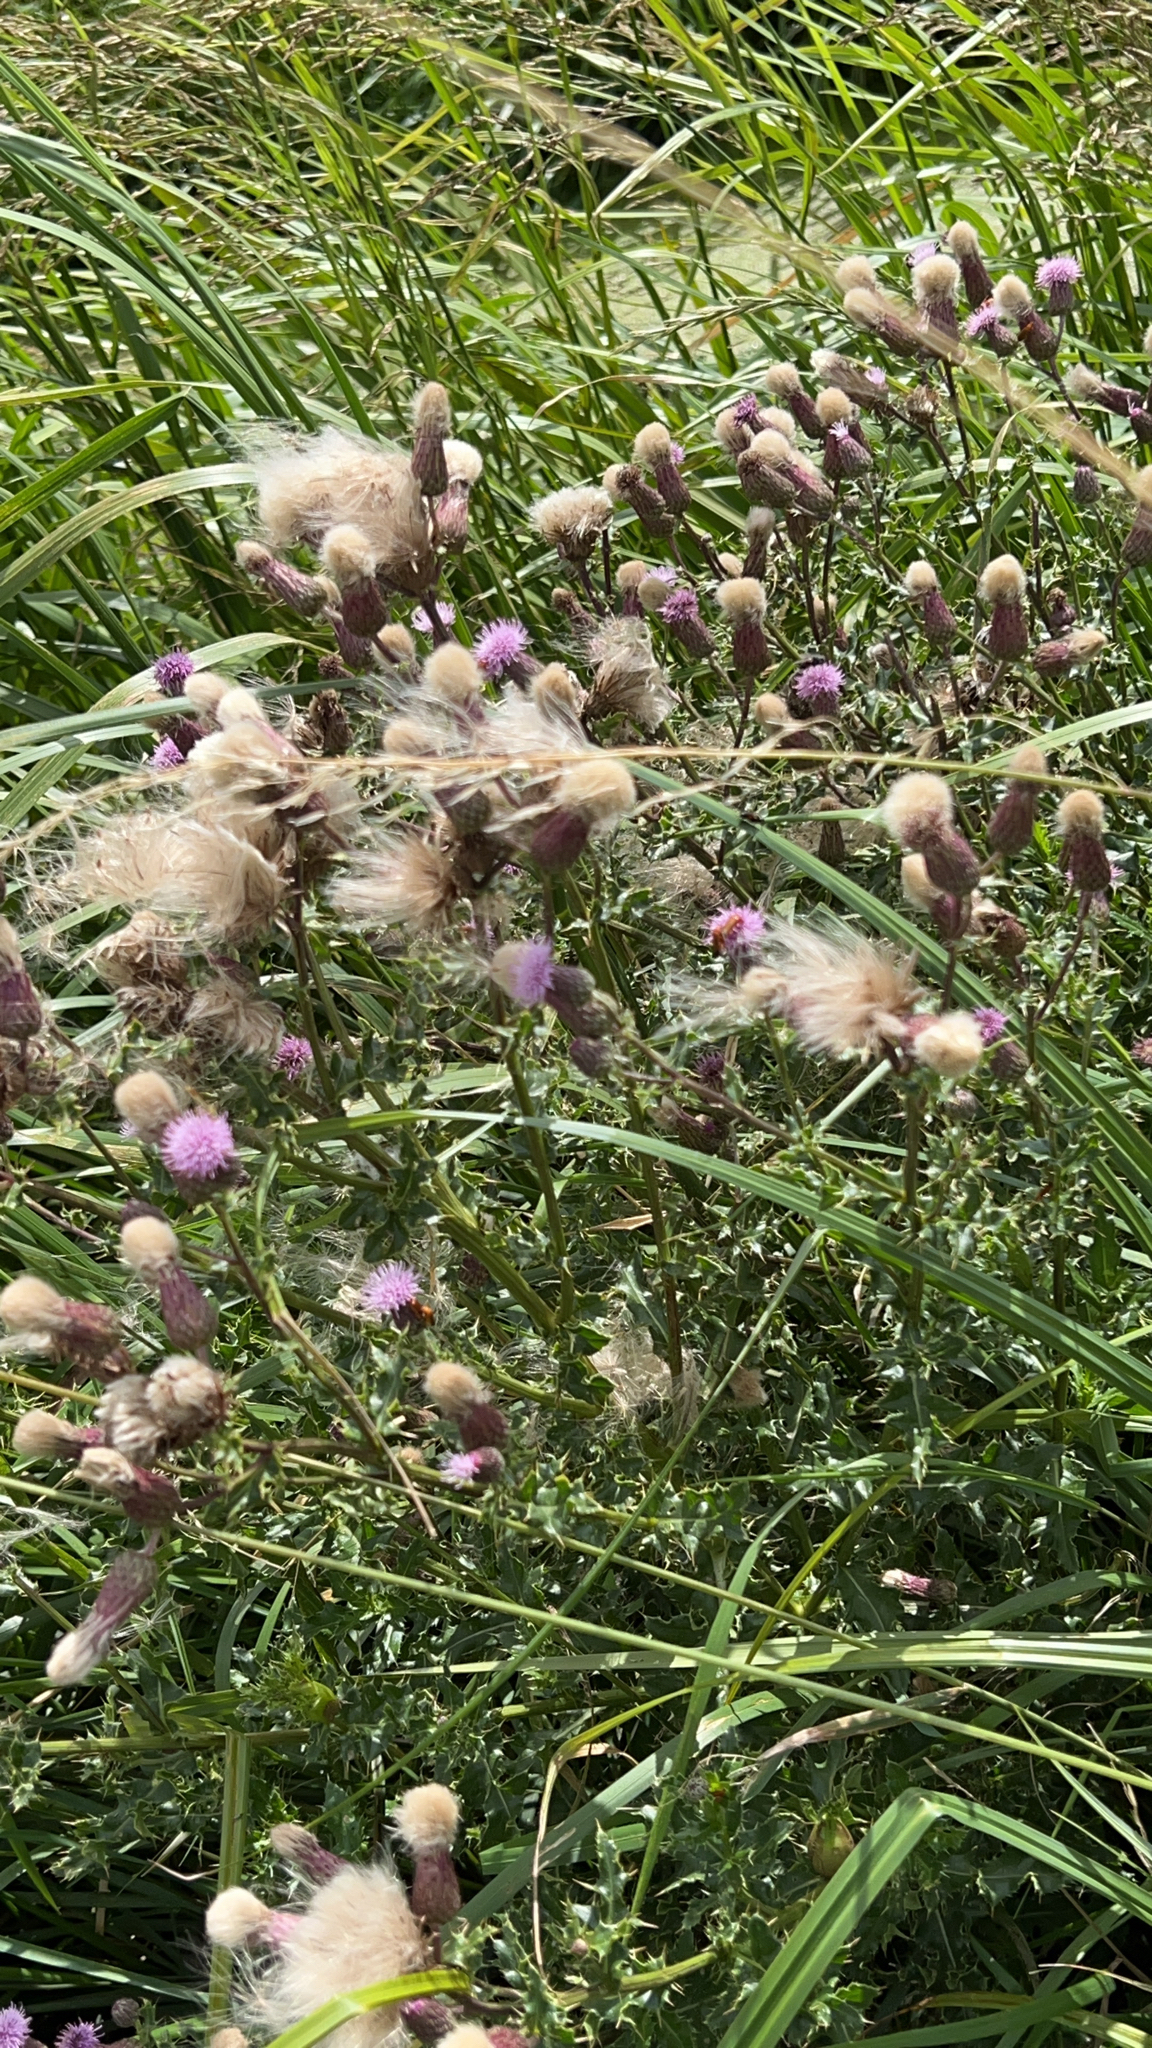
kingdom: Plantae
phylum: Tracheophyta
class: Magnoliopsida
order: Asterales
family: Asteraceae
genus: Cirsium
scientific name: Cirsium arvense
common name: Creeping thistle
